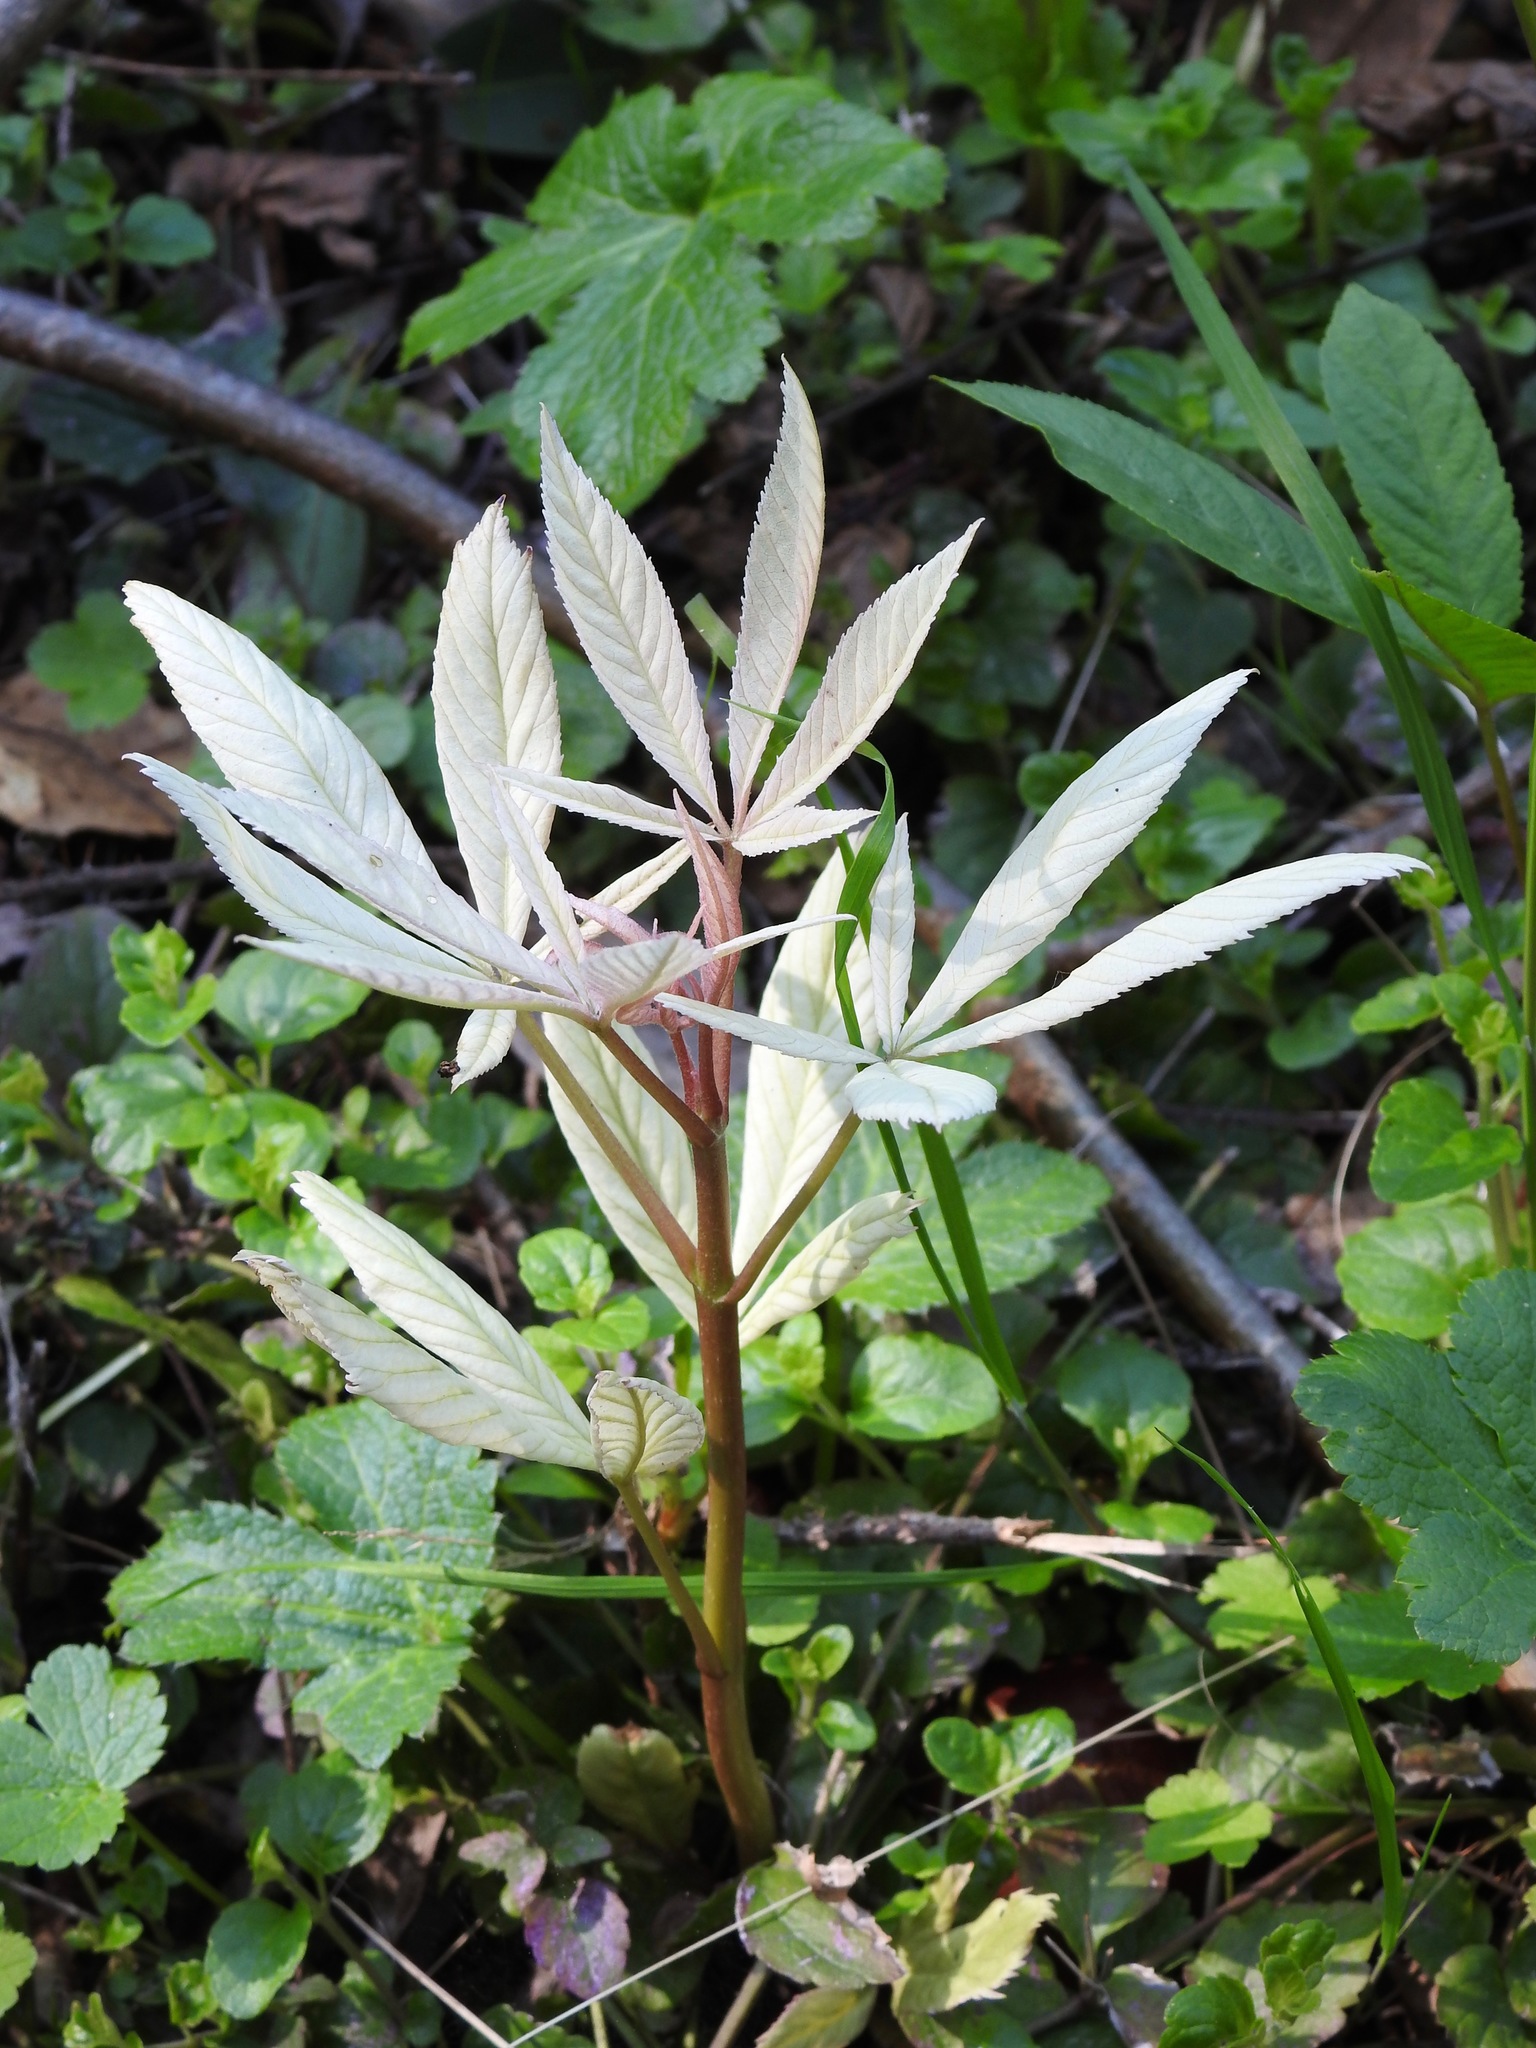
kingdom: Plantae
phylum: Tracheophyta
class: Magnoliopsida
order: Sapindales
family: Sapindaceae
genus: Aesculus
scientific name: Aesculus californica
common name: California buckeye
